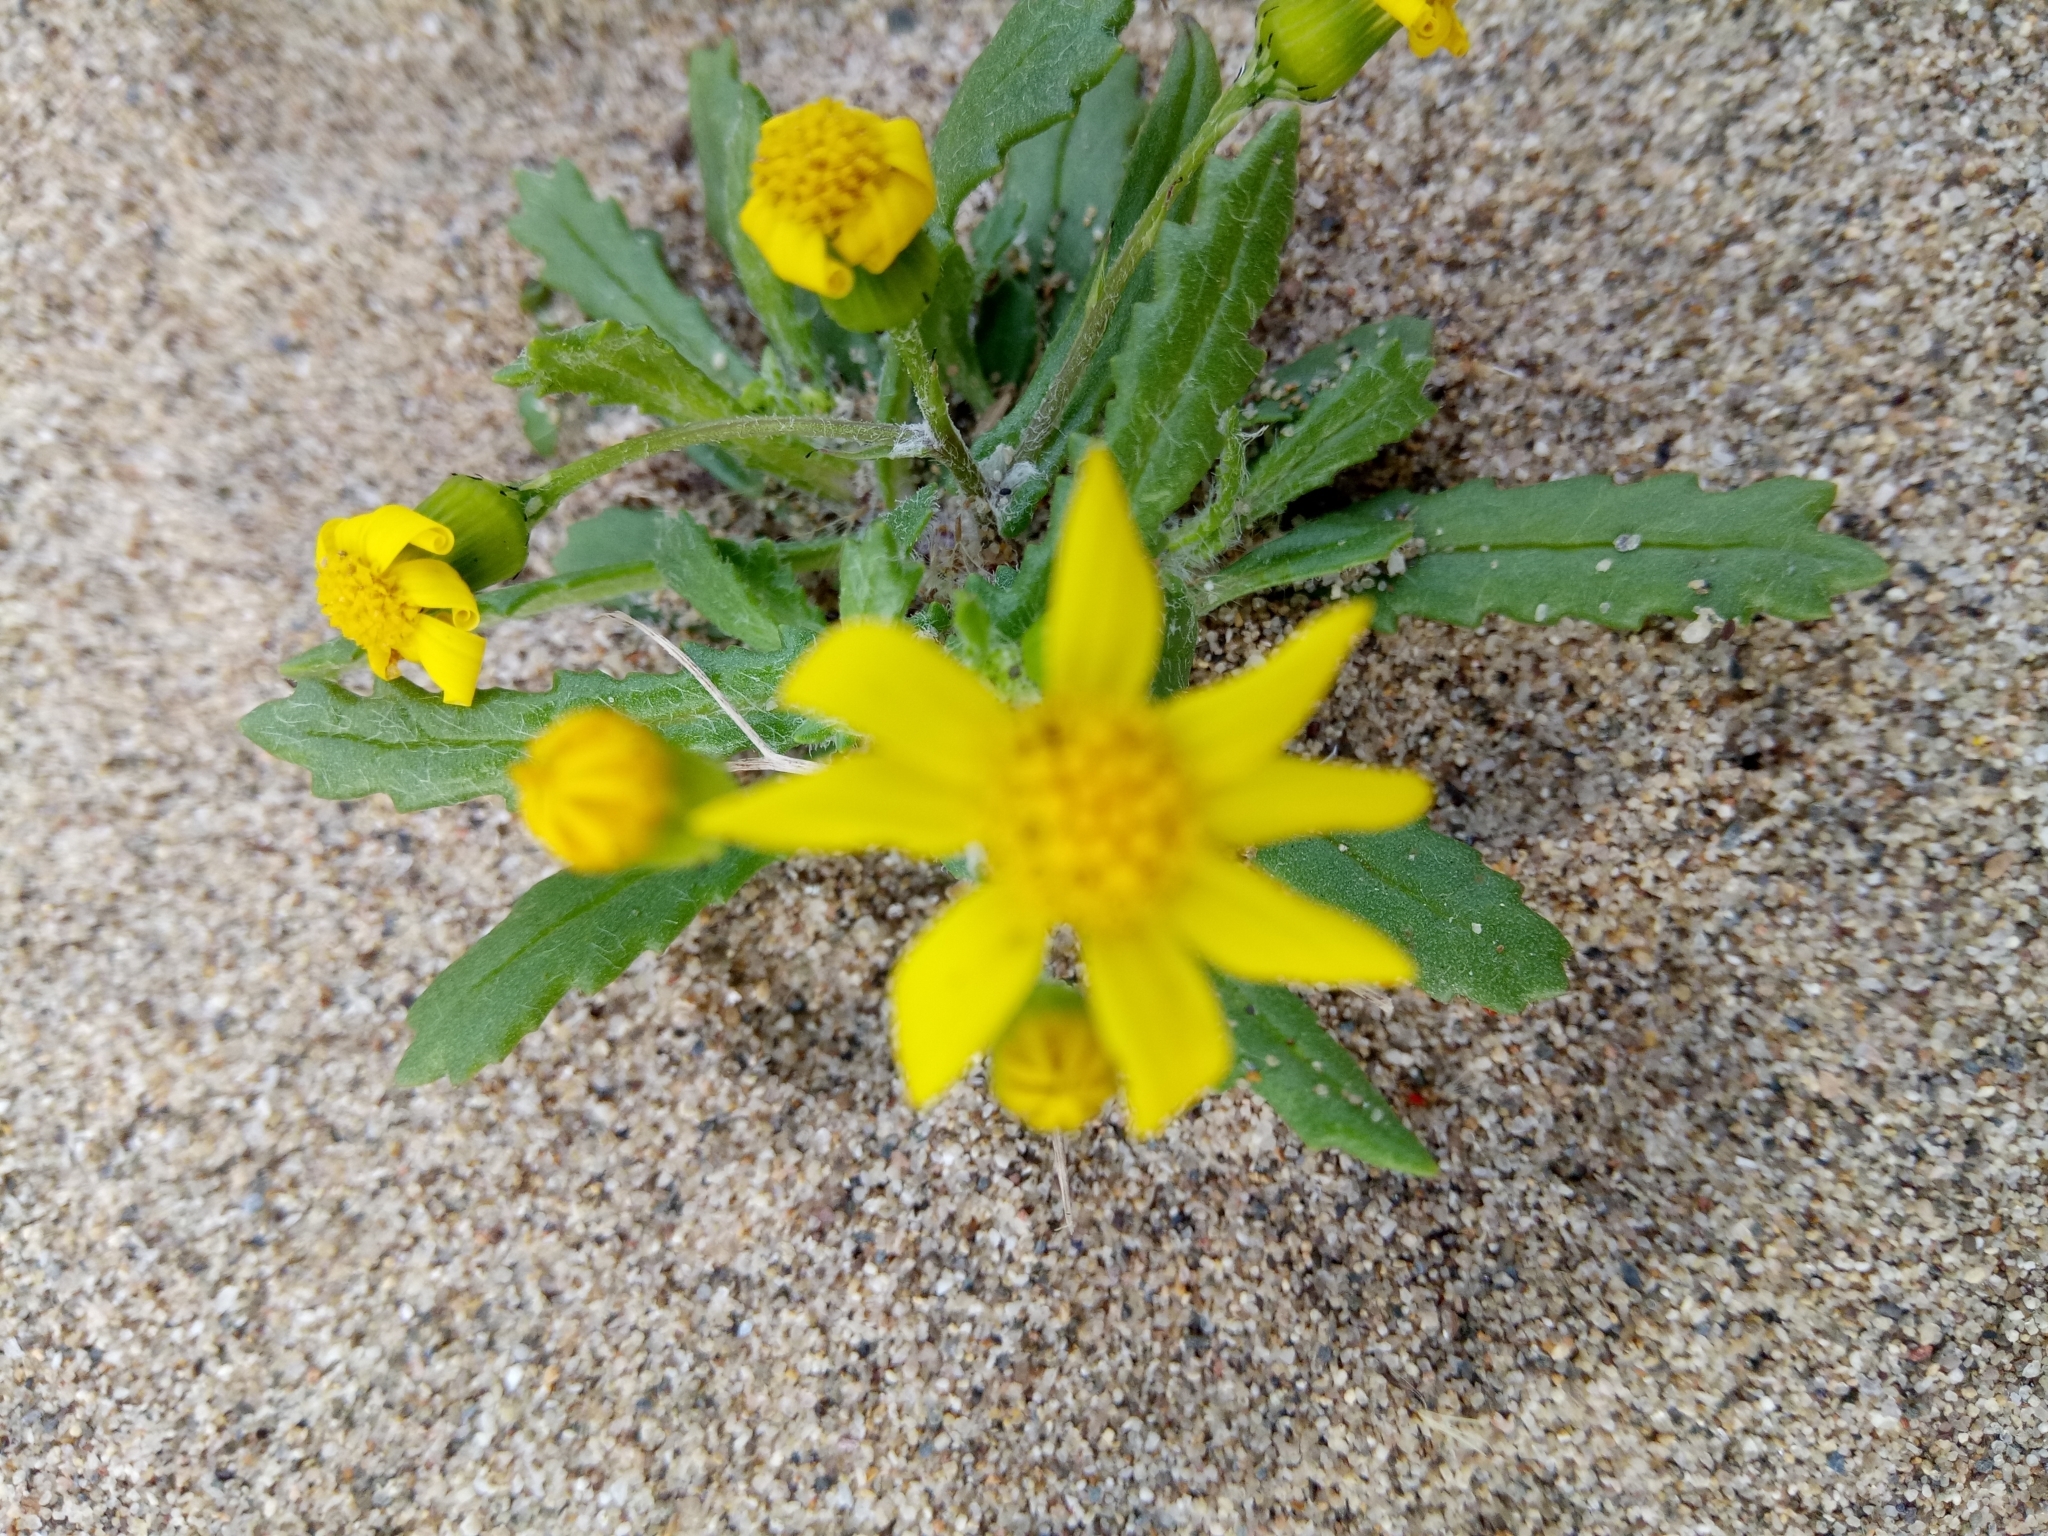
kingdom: Plantae
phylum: Tracheophyta
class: Magnoliopsida
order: Asterales
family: Asteraceae
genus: Senecio
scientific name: Senecio leucanthemifolius
